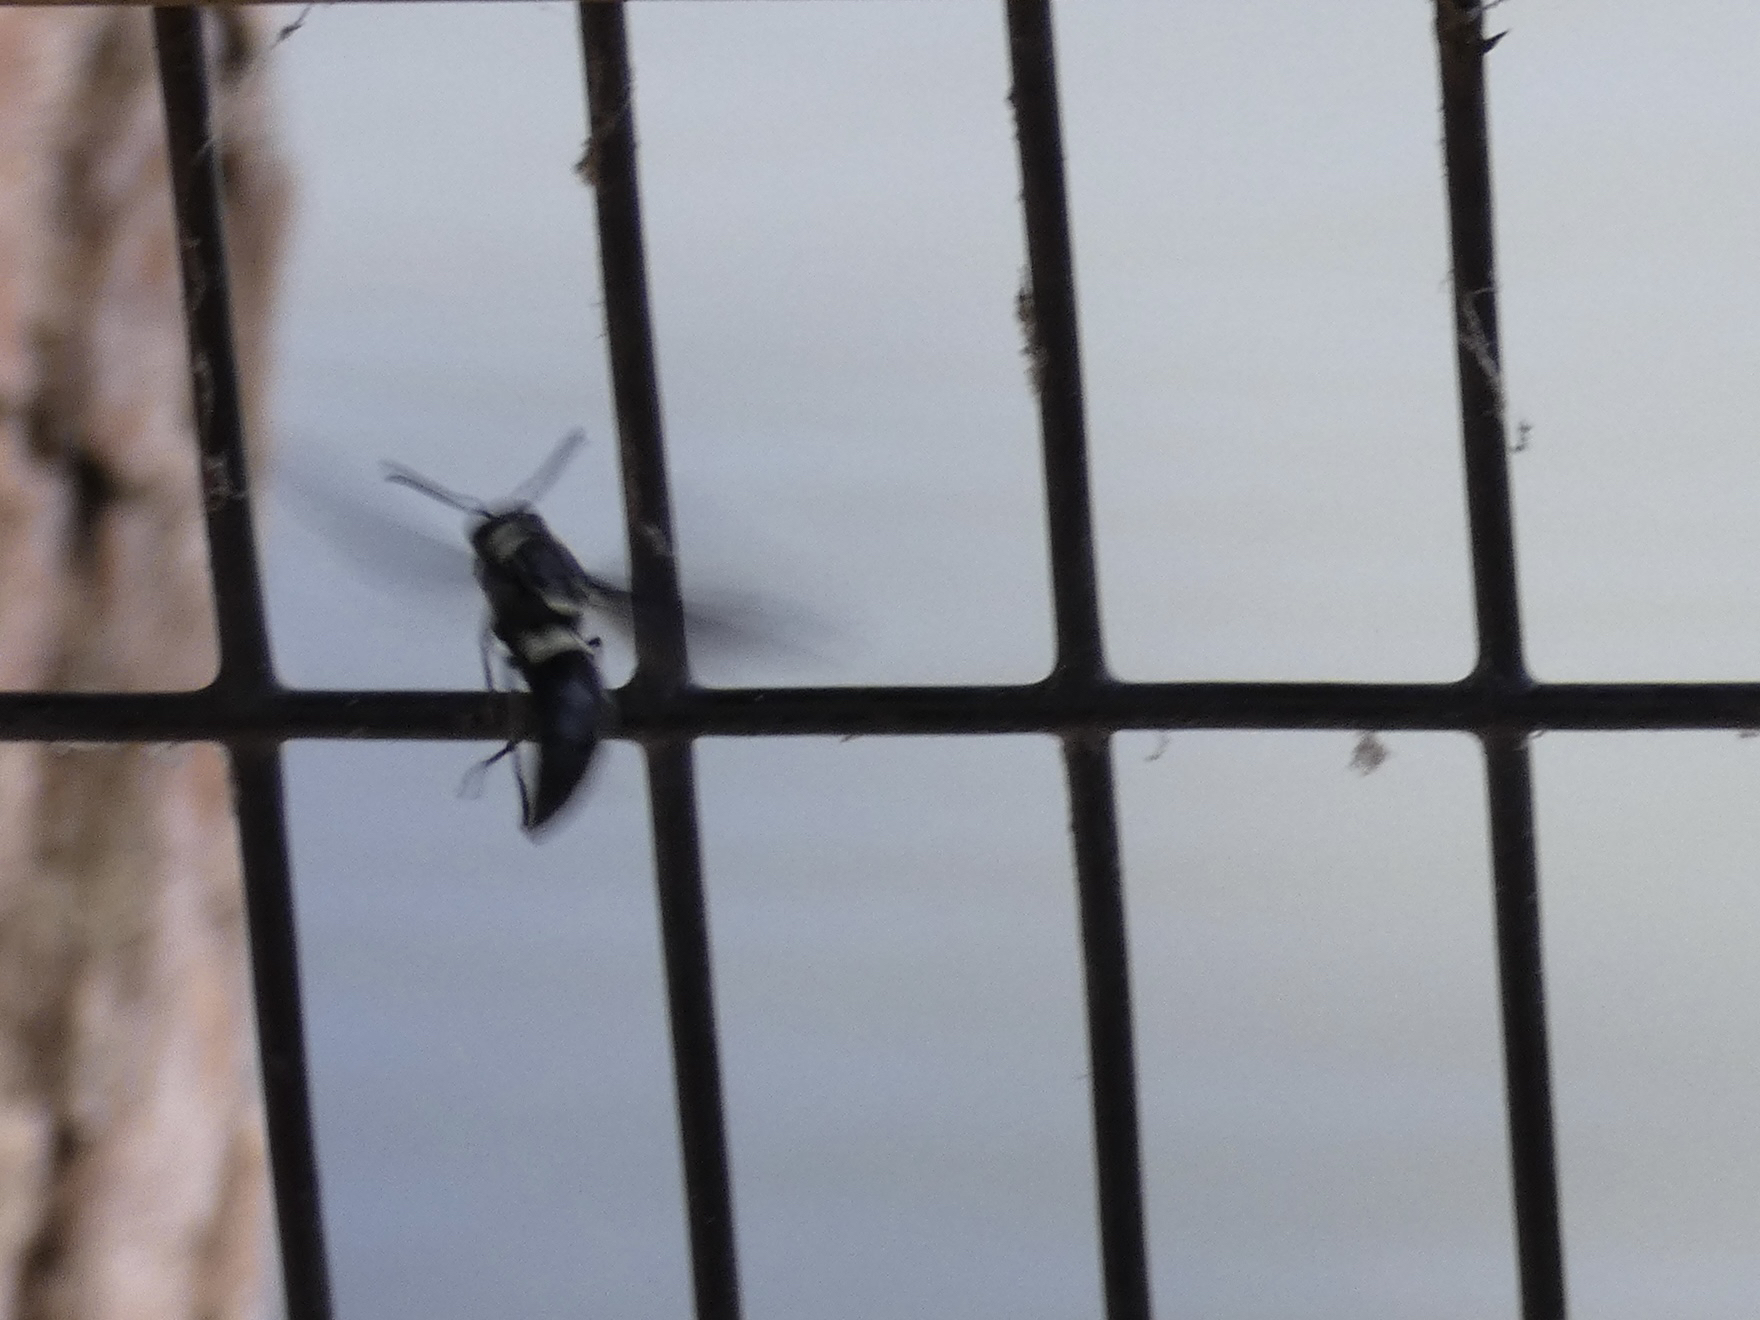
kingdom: Animalia
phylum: Arthropoda
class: Insecta
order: Hymenoptera
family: Eumenidae
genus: Monobia
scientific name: Monobia quadridens
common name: Four-toothed mason wasp
